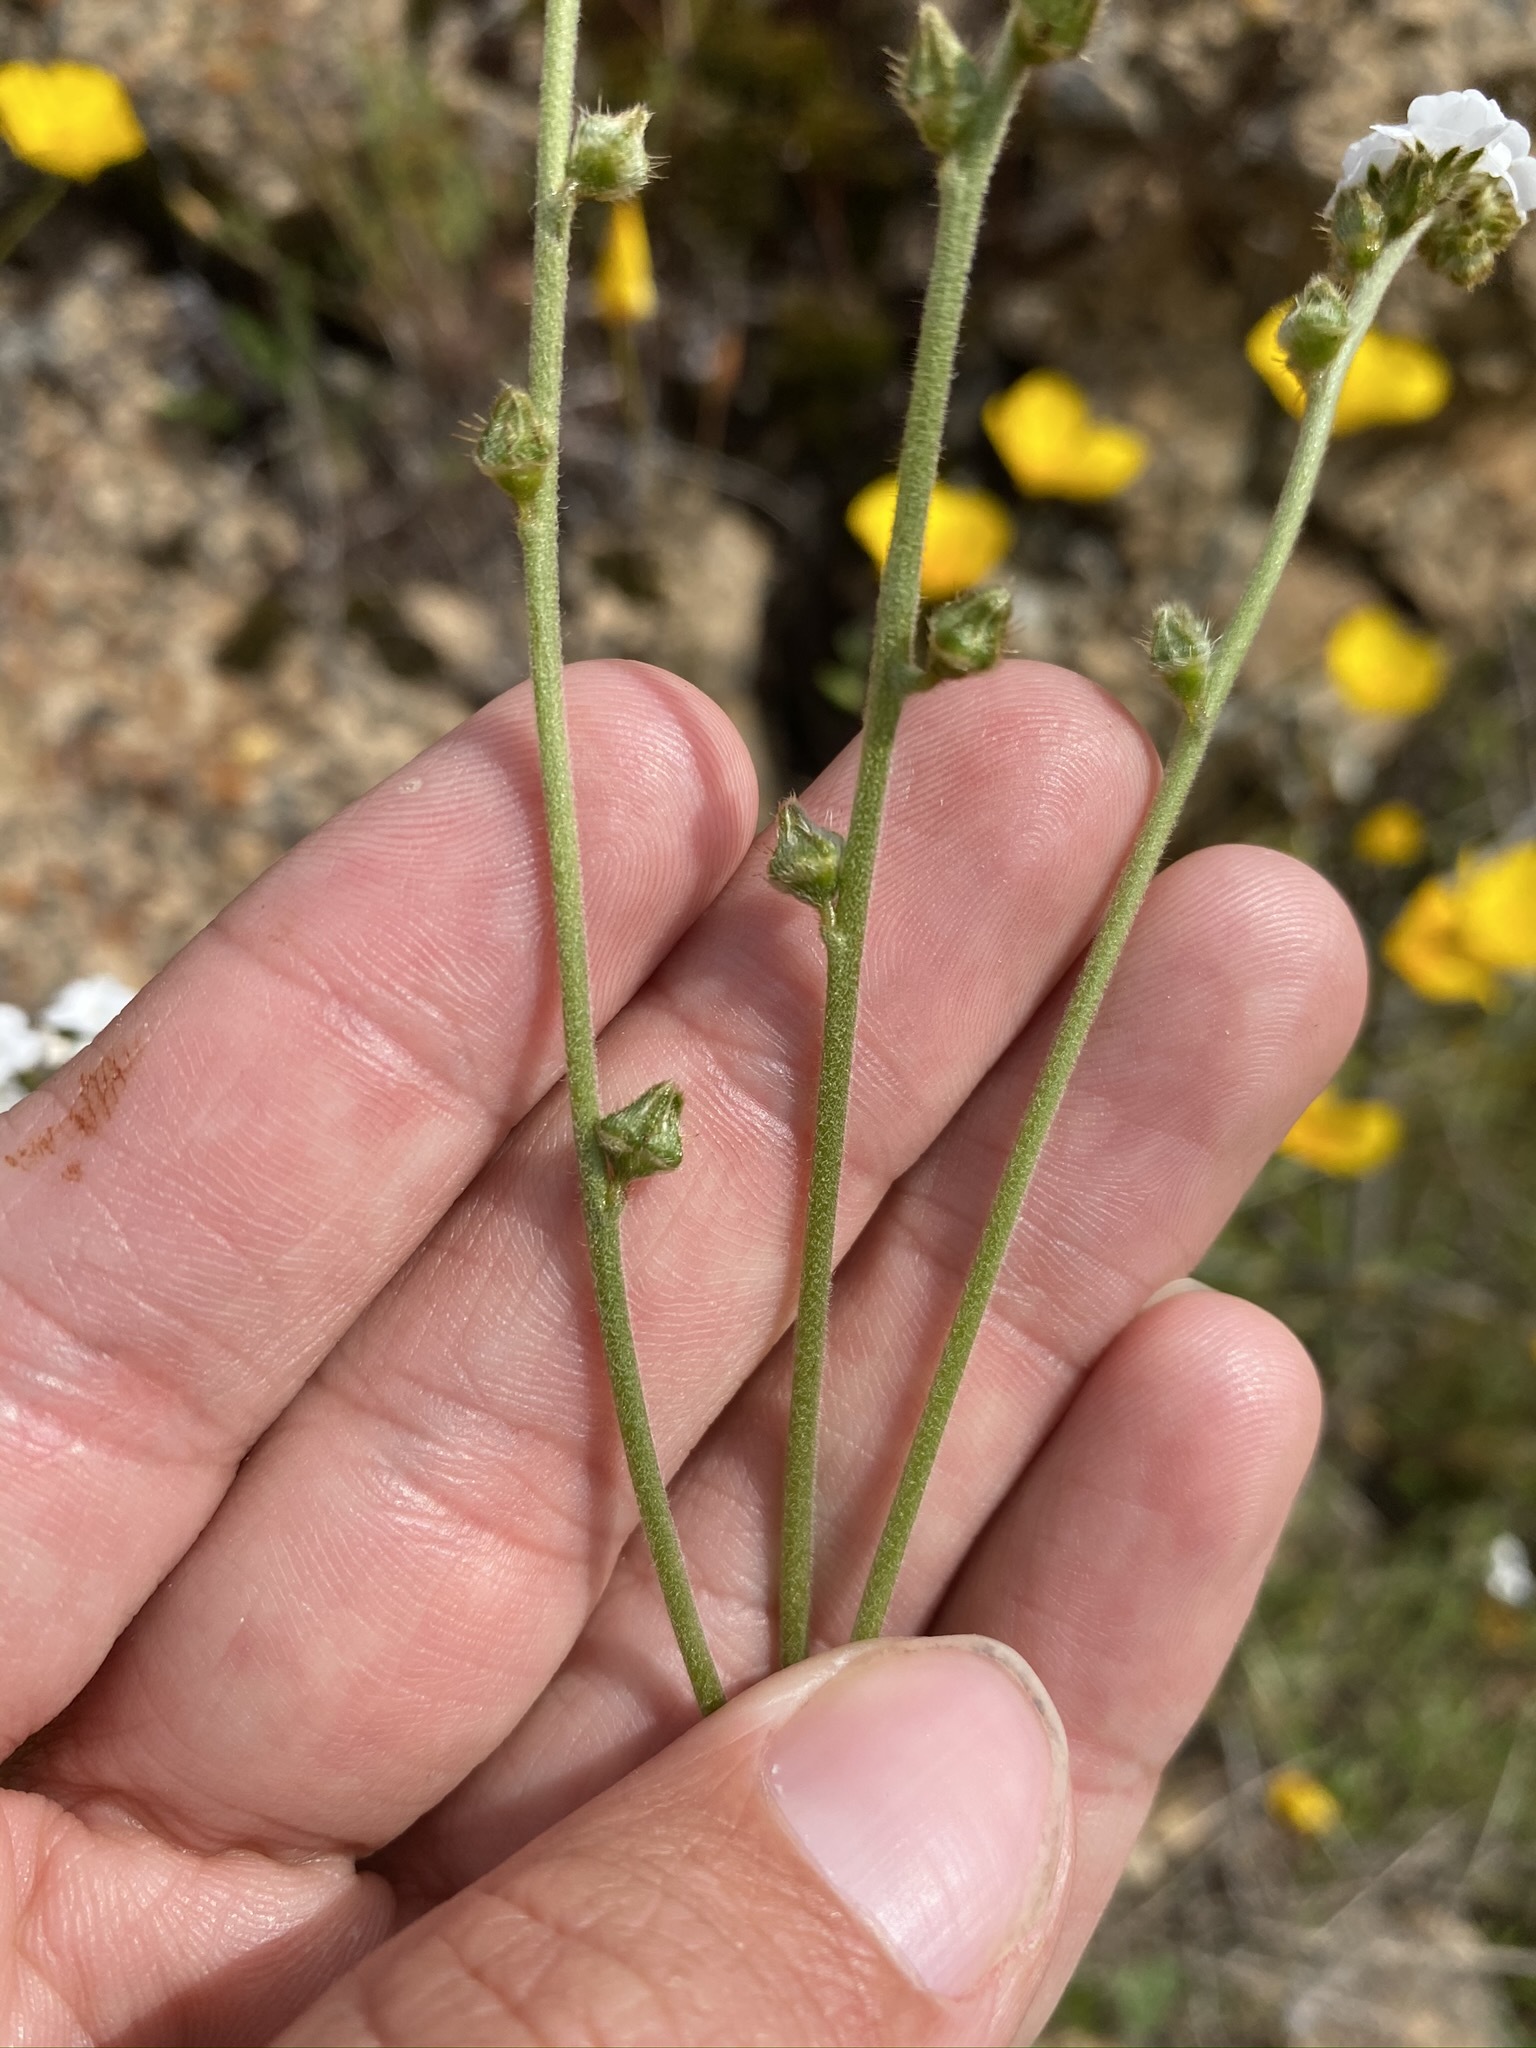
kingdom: Plantae
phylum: Tracheophyta
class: Magnoliopsida
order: Boraginales
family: Boraginaceae
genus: Plagiobothrys
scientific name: Plagiobothrys nothofulvus
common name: Popcorn-flower
